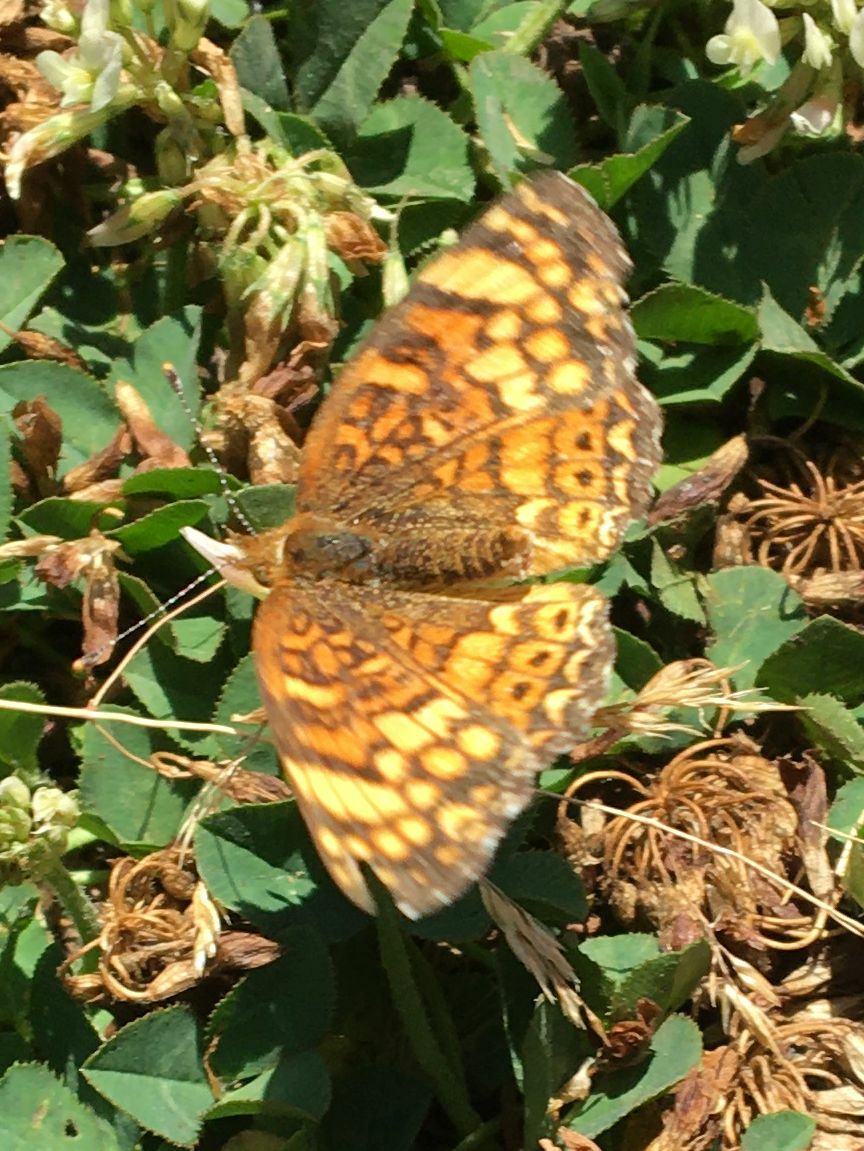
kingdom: Animalia
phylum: Arthropoda
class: Insecta
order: Lepidoptera
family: Nymphalidae
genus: Eresia
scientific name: Eresia aveyrona
